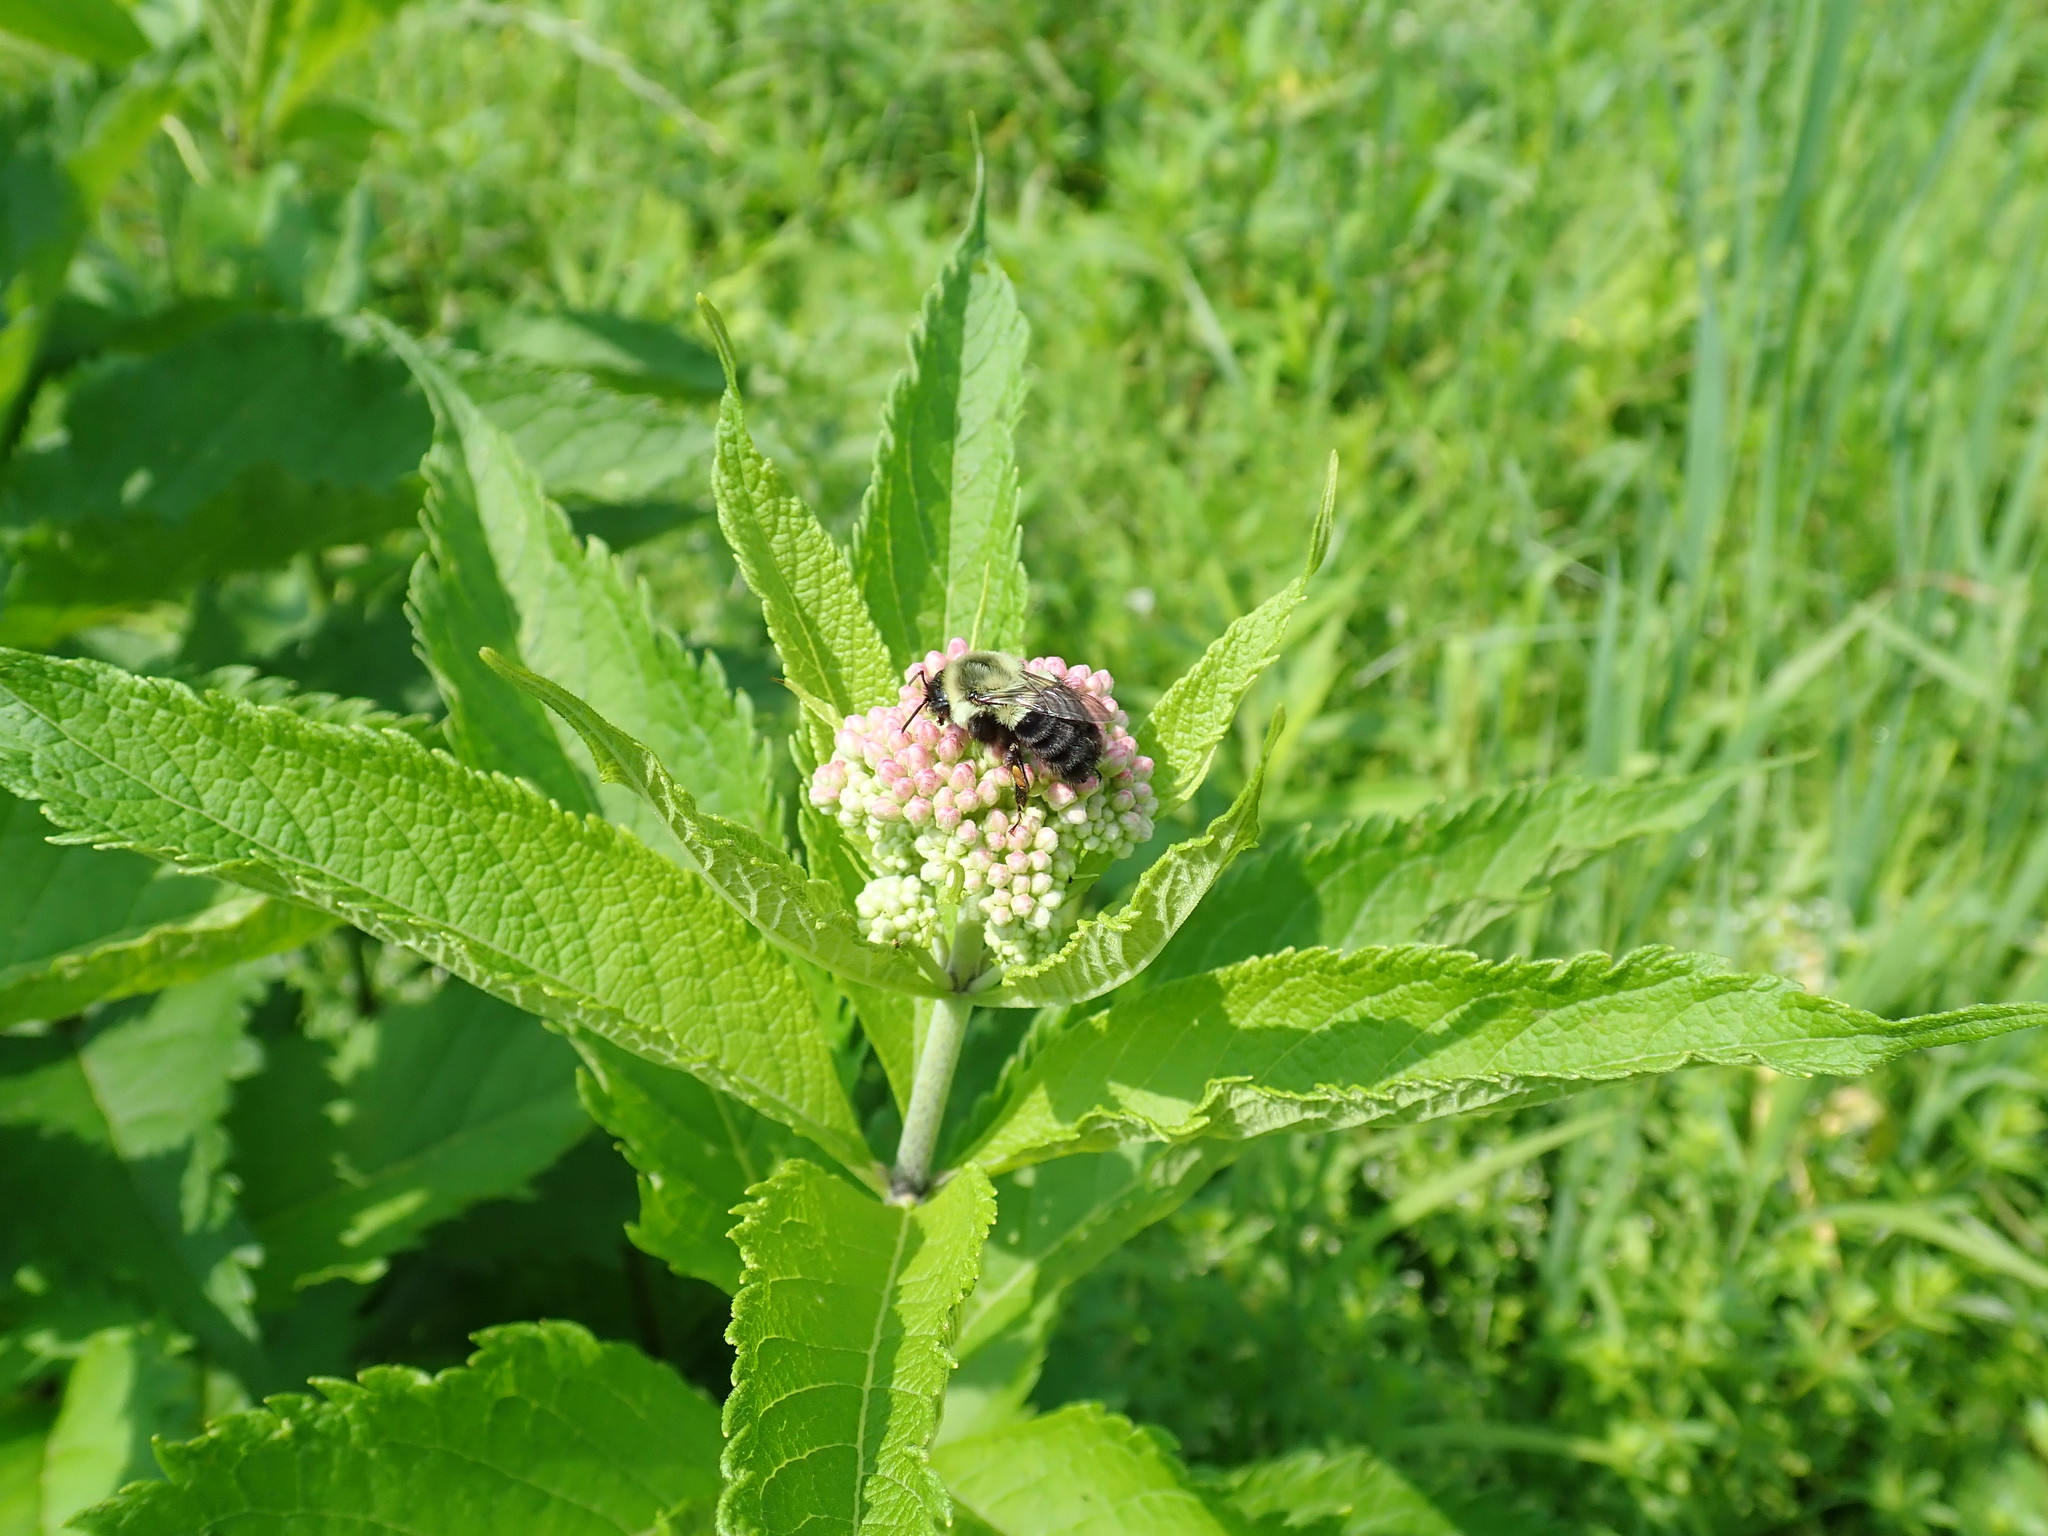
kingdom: Animalia
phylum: Arthropoda
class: Insecta
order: Hymenoptera
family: Apidae
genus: Bombus
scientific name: Bombus impatiens
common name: Common eastern bumble bee
